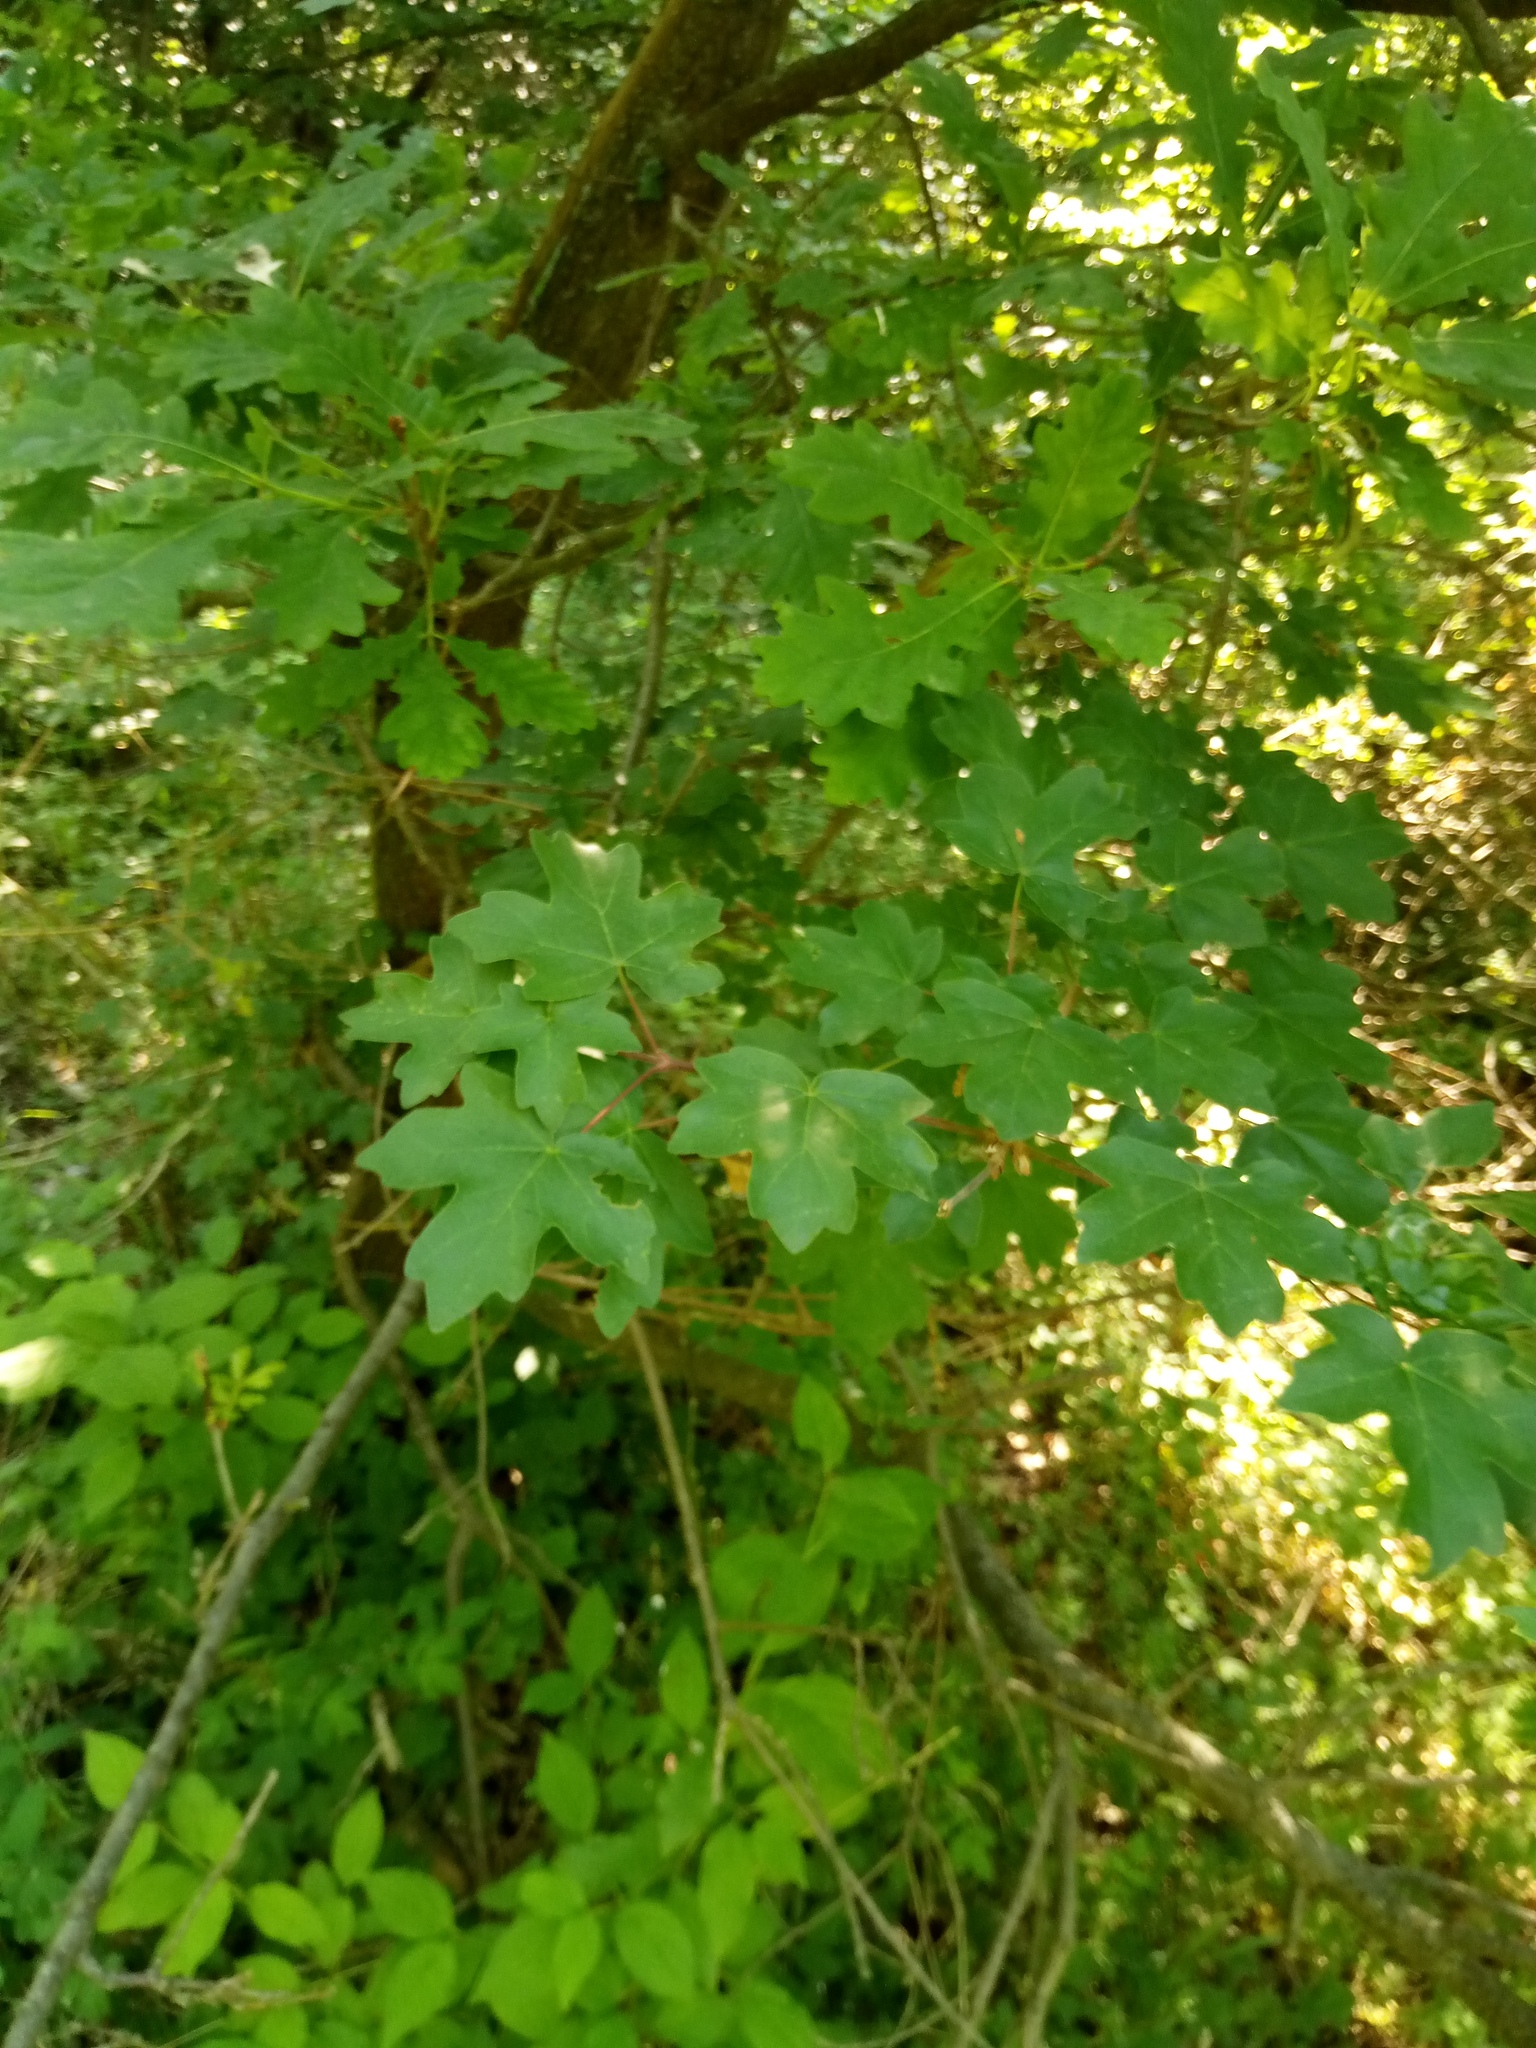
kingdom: Plantae
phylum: Tracheophyta
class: Magnoliopsida
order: Sapindales
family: Sapindaceae
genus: Acer
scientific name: Acer campestre
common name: Field maple
